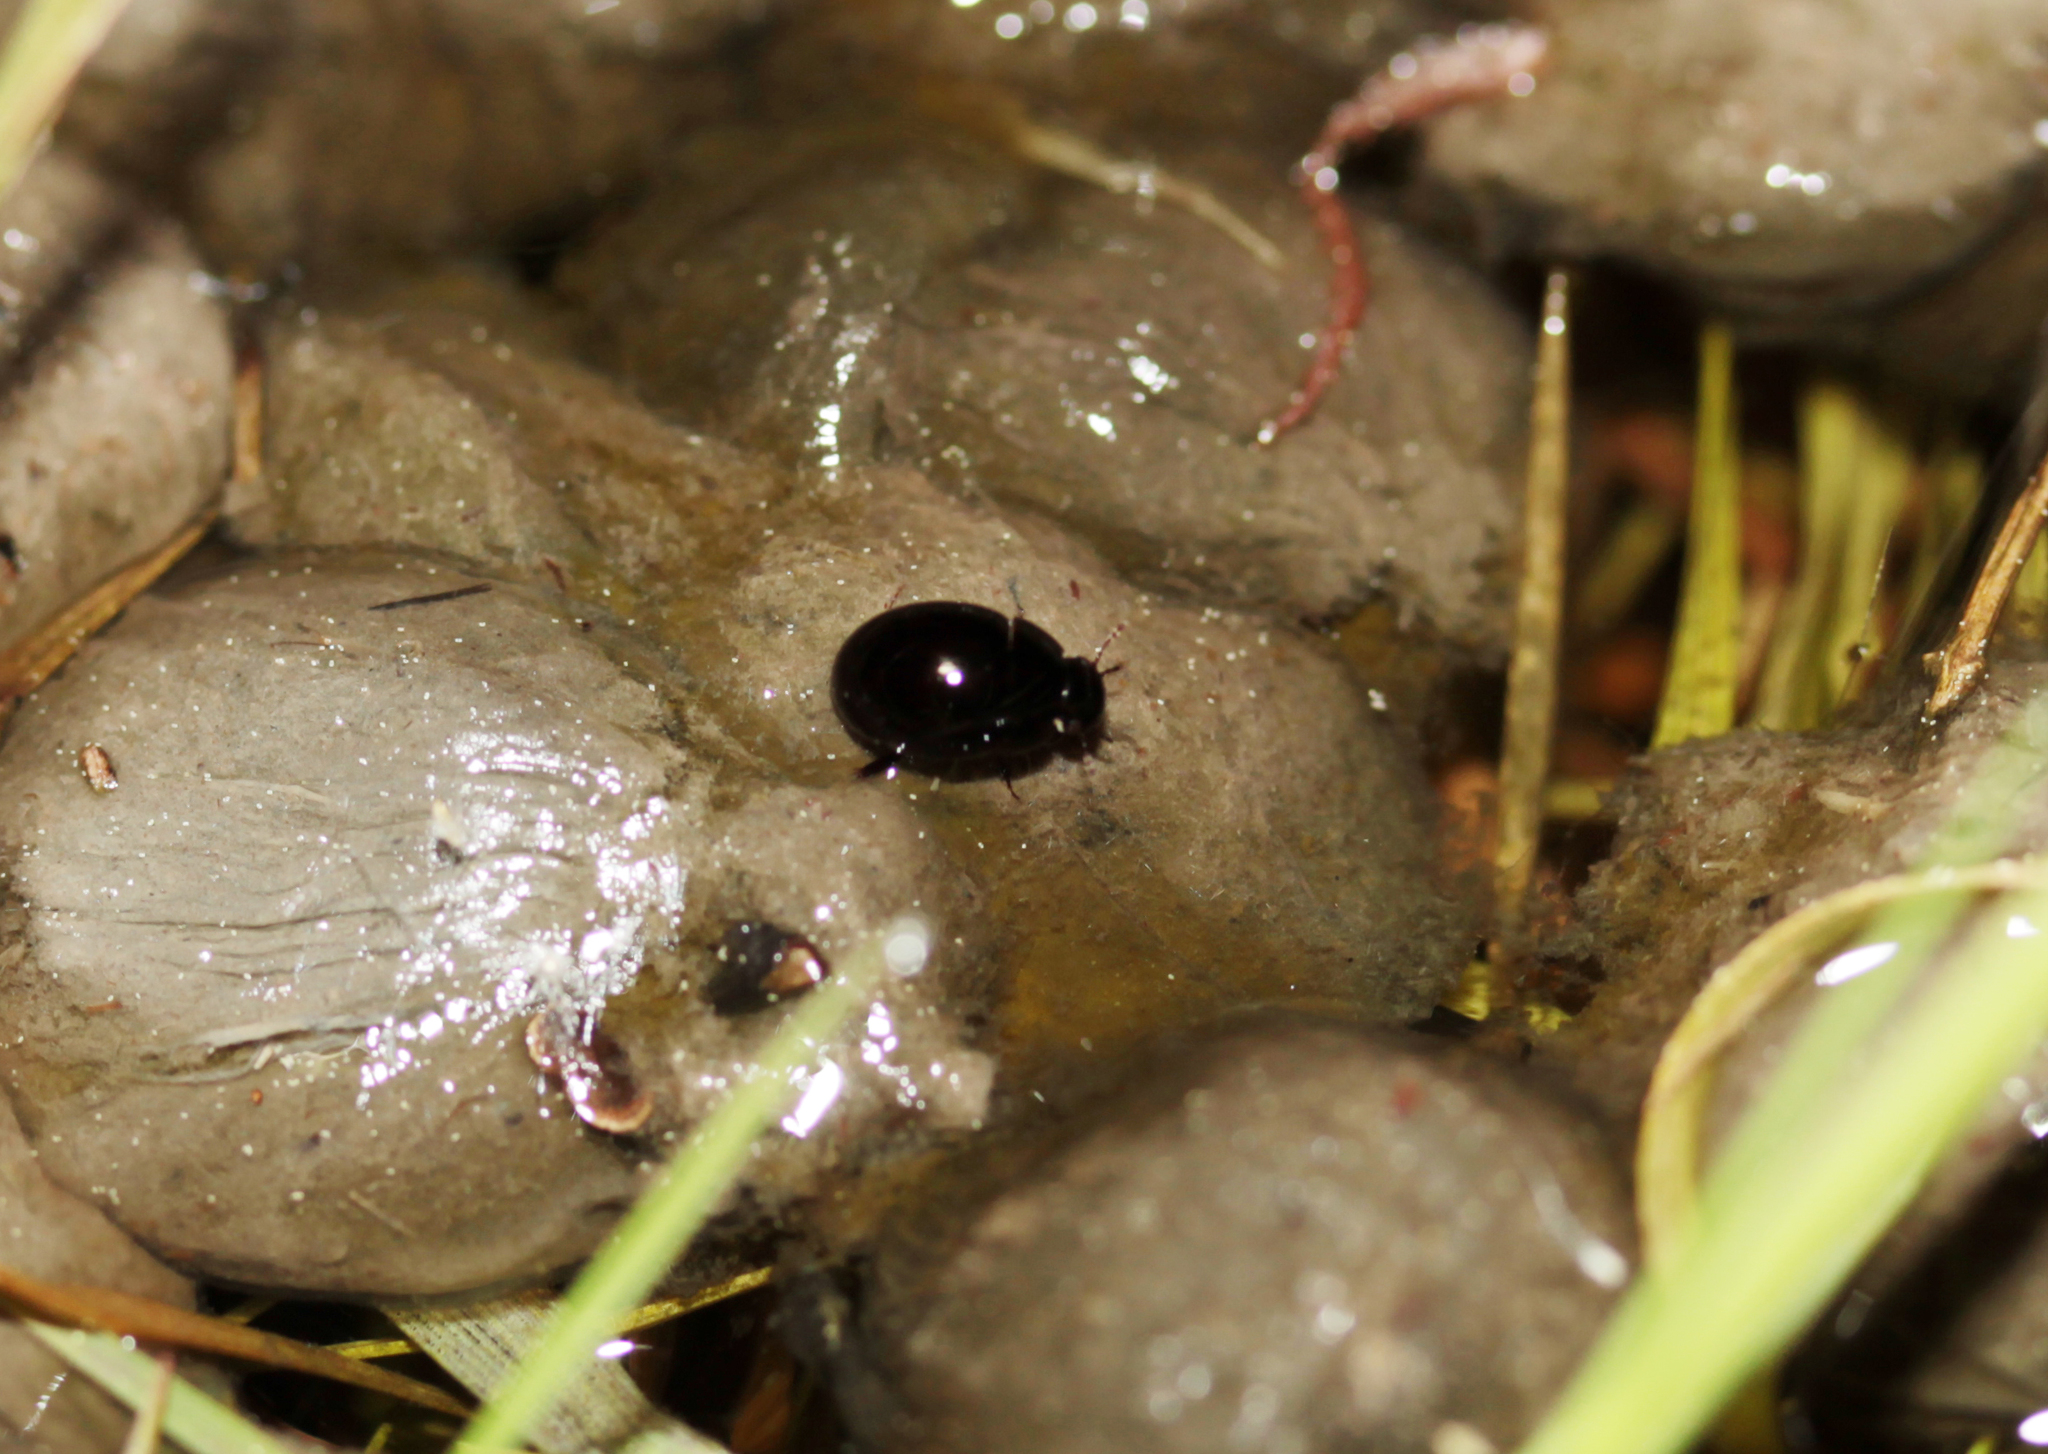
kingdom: Animalia
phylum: Arthropoda
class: Insecta
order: Coleoptera
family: Hydrophilidae
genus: Coelostoma
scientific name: Coelostoma tina
